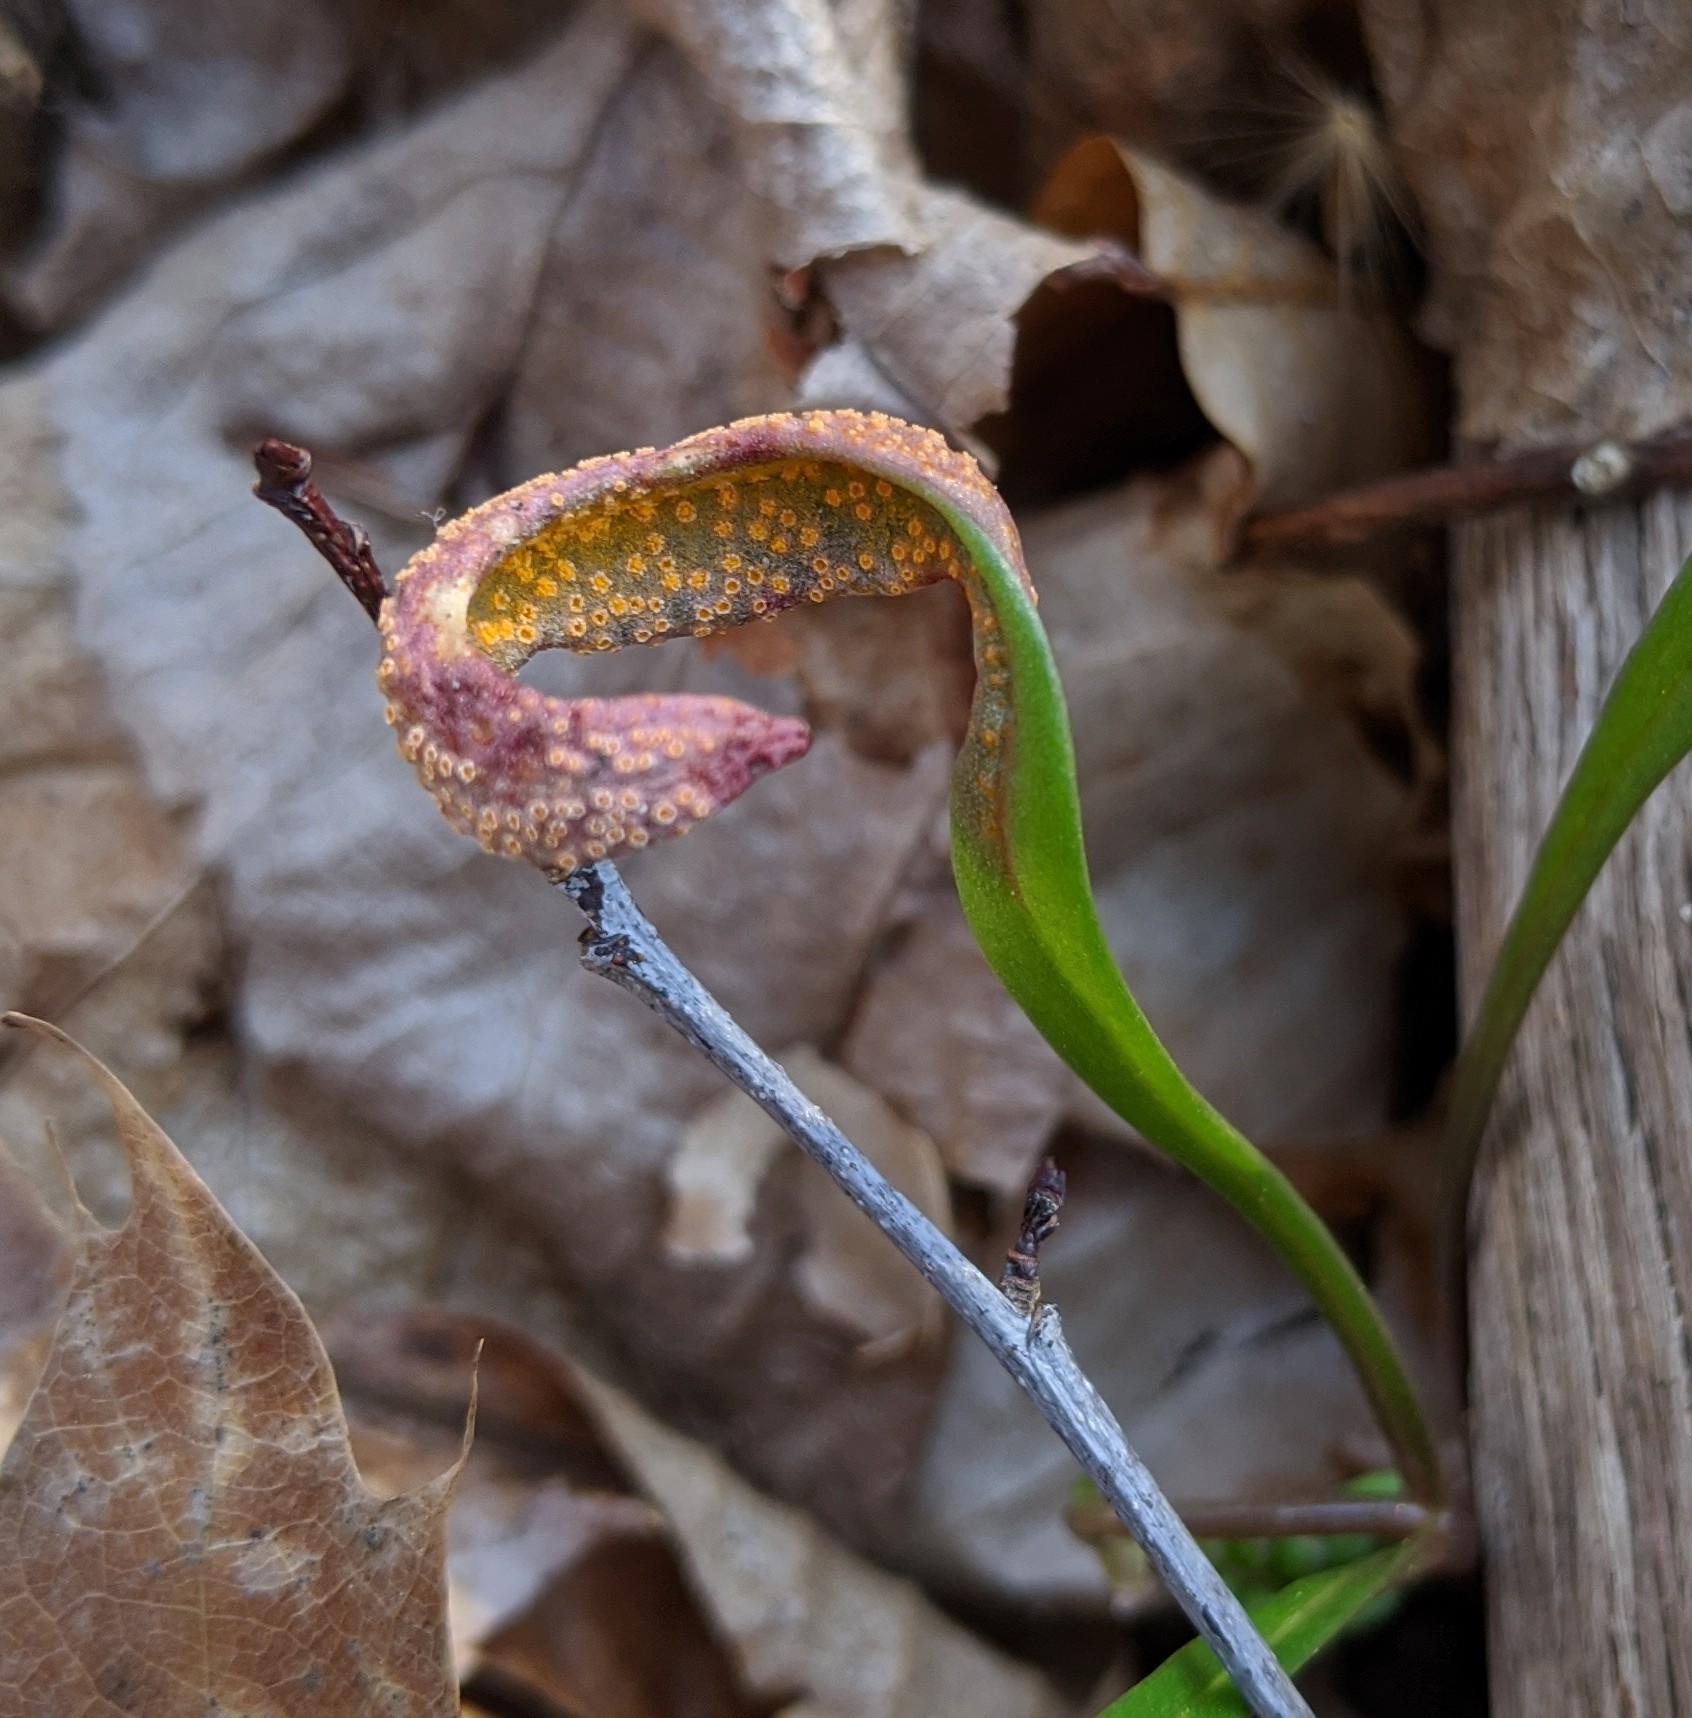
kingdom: Fungi
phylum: Basidiomycota
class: Pucciniomycetes
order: Pucciniales
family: Pucciniaceae
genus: Puccinia
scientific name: Puccinia mariae-wilsoniae
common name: Spring beauty rust
